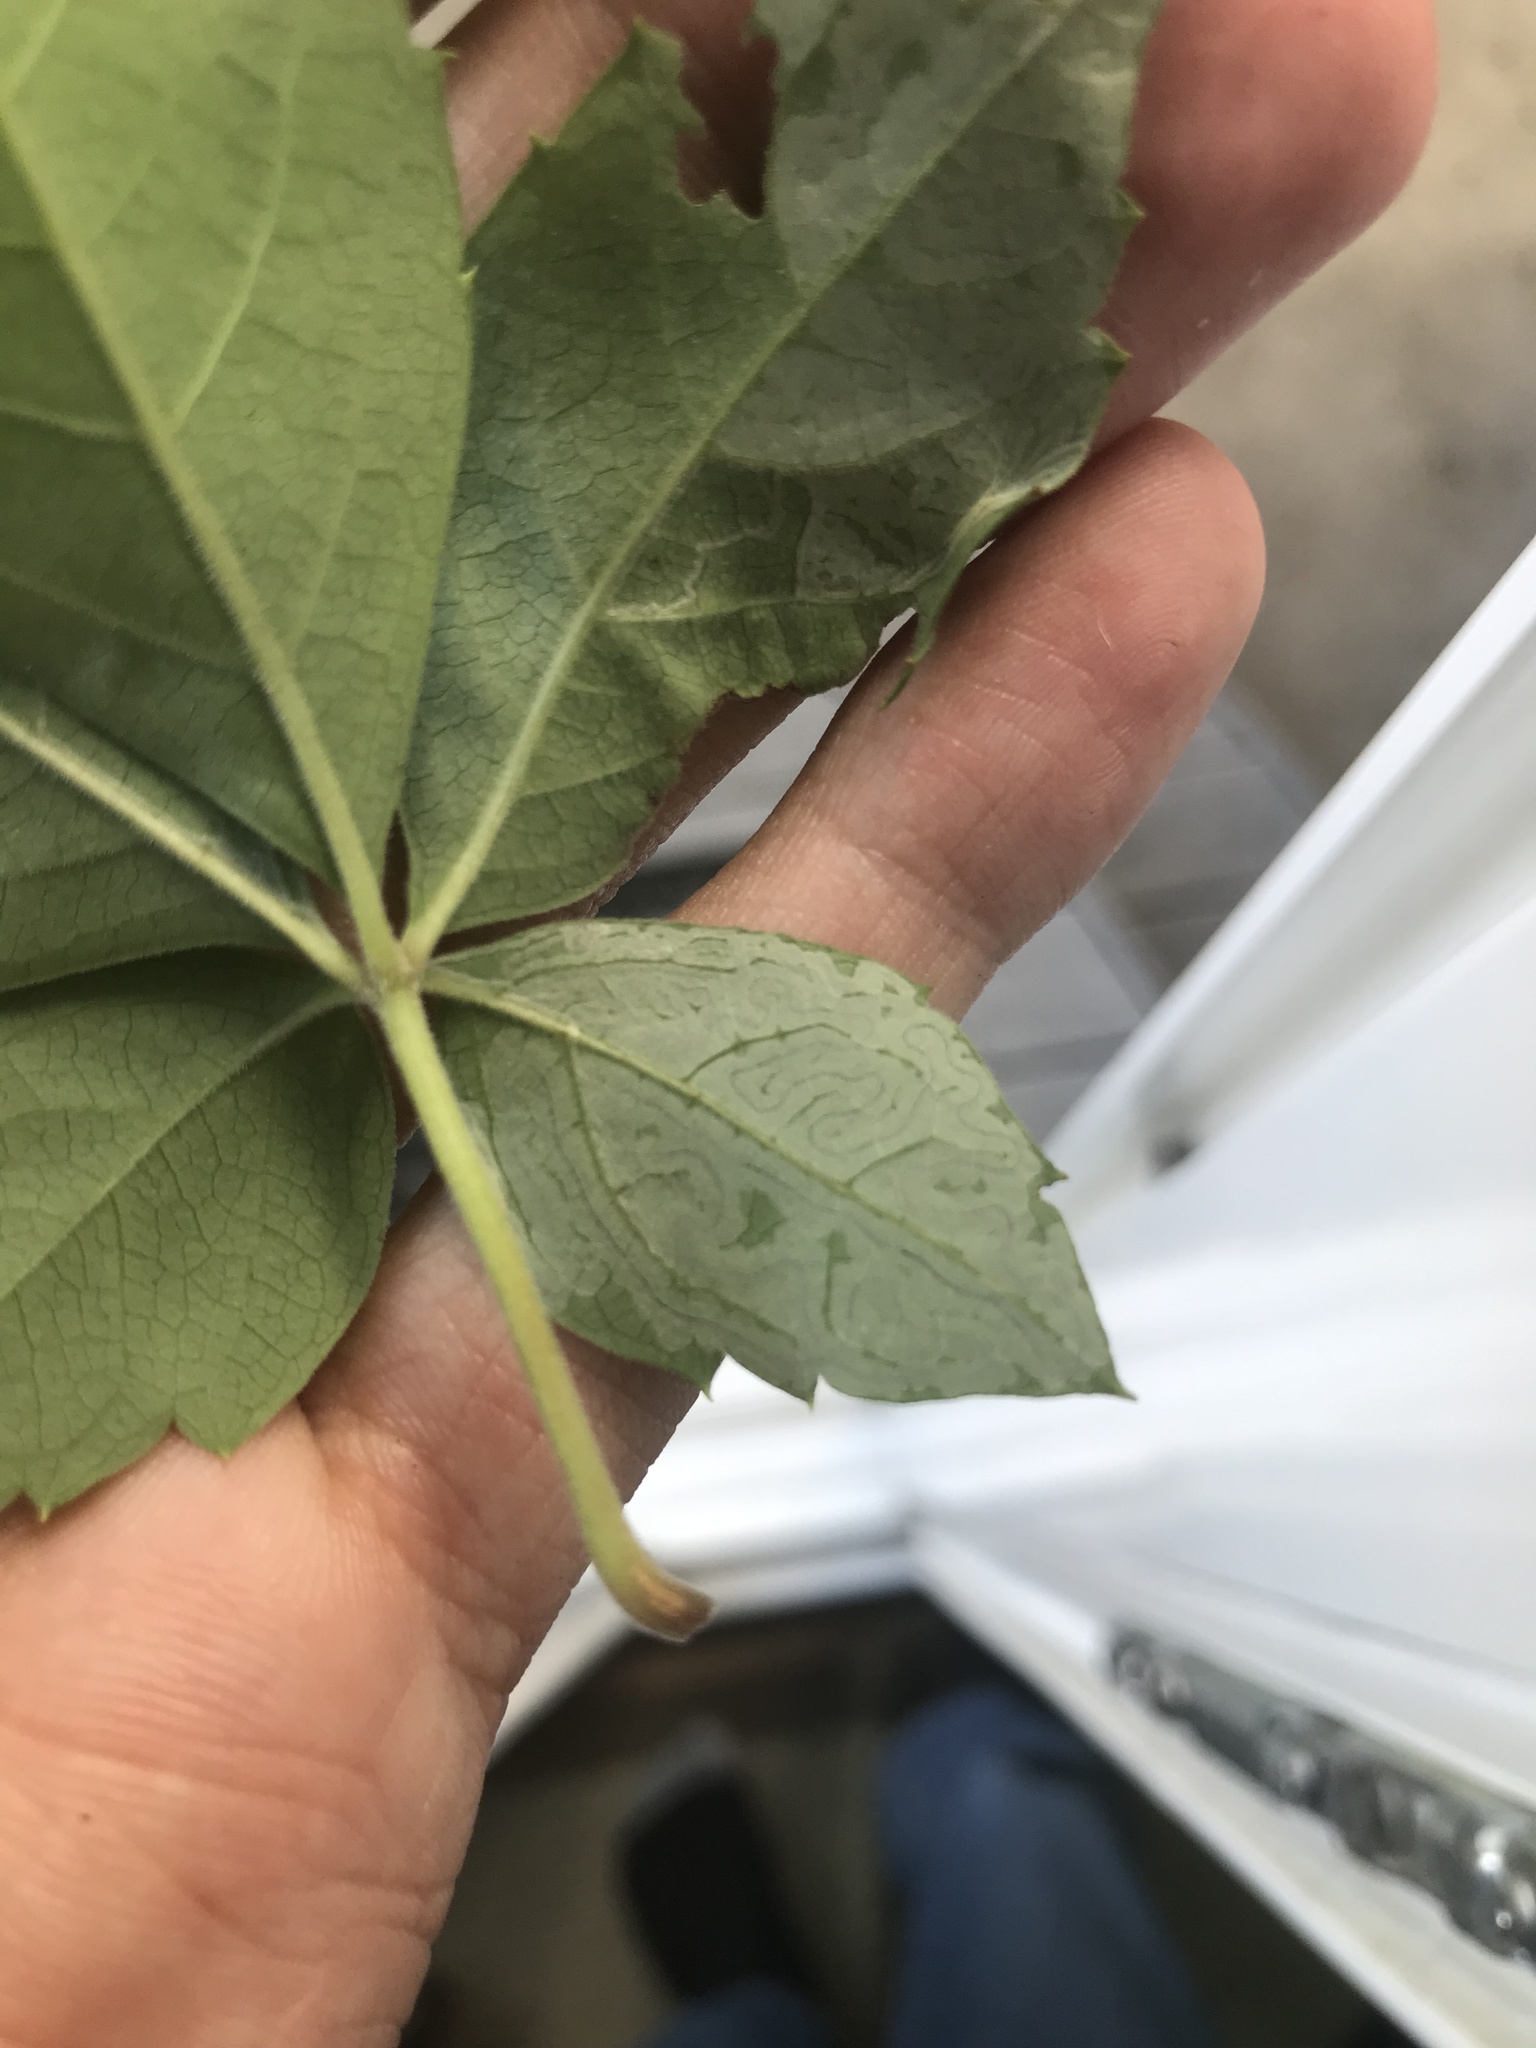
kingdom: Animalia
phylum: Arthropoda
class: Insecta
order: Lepidoptera
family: Gracillariidae
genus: Phyllocnistis
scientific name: Phyllocnistis ampelopsiella
